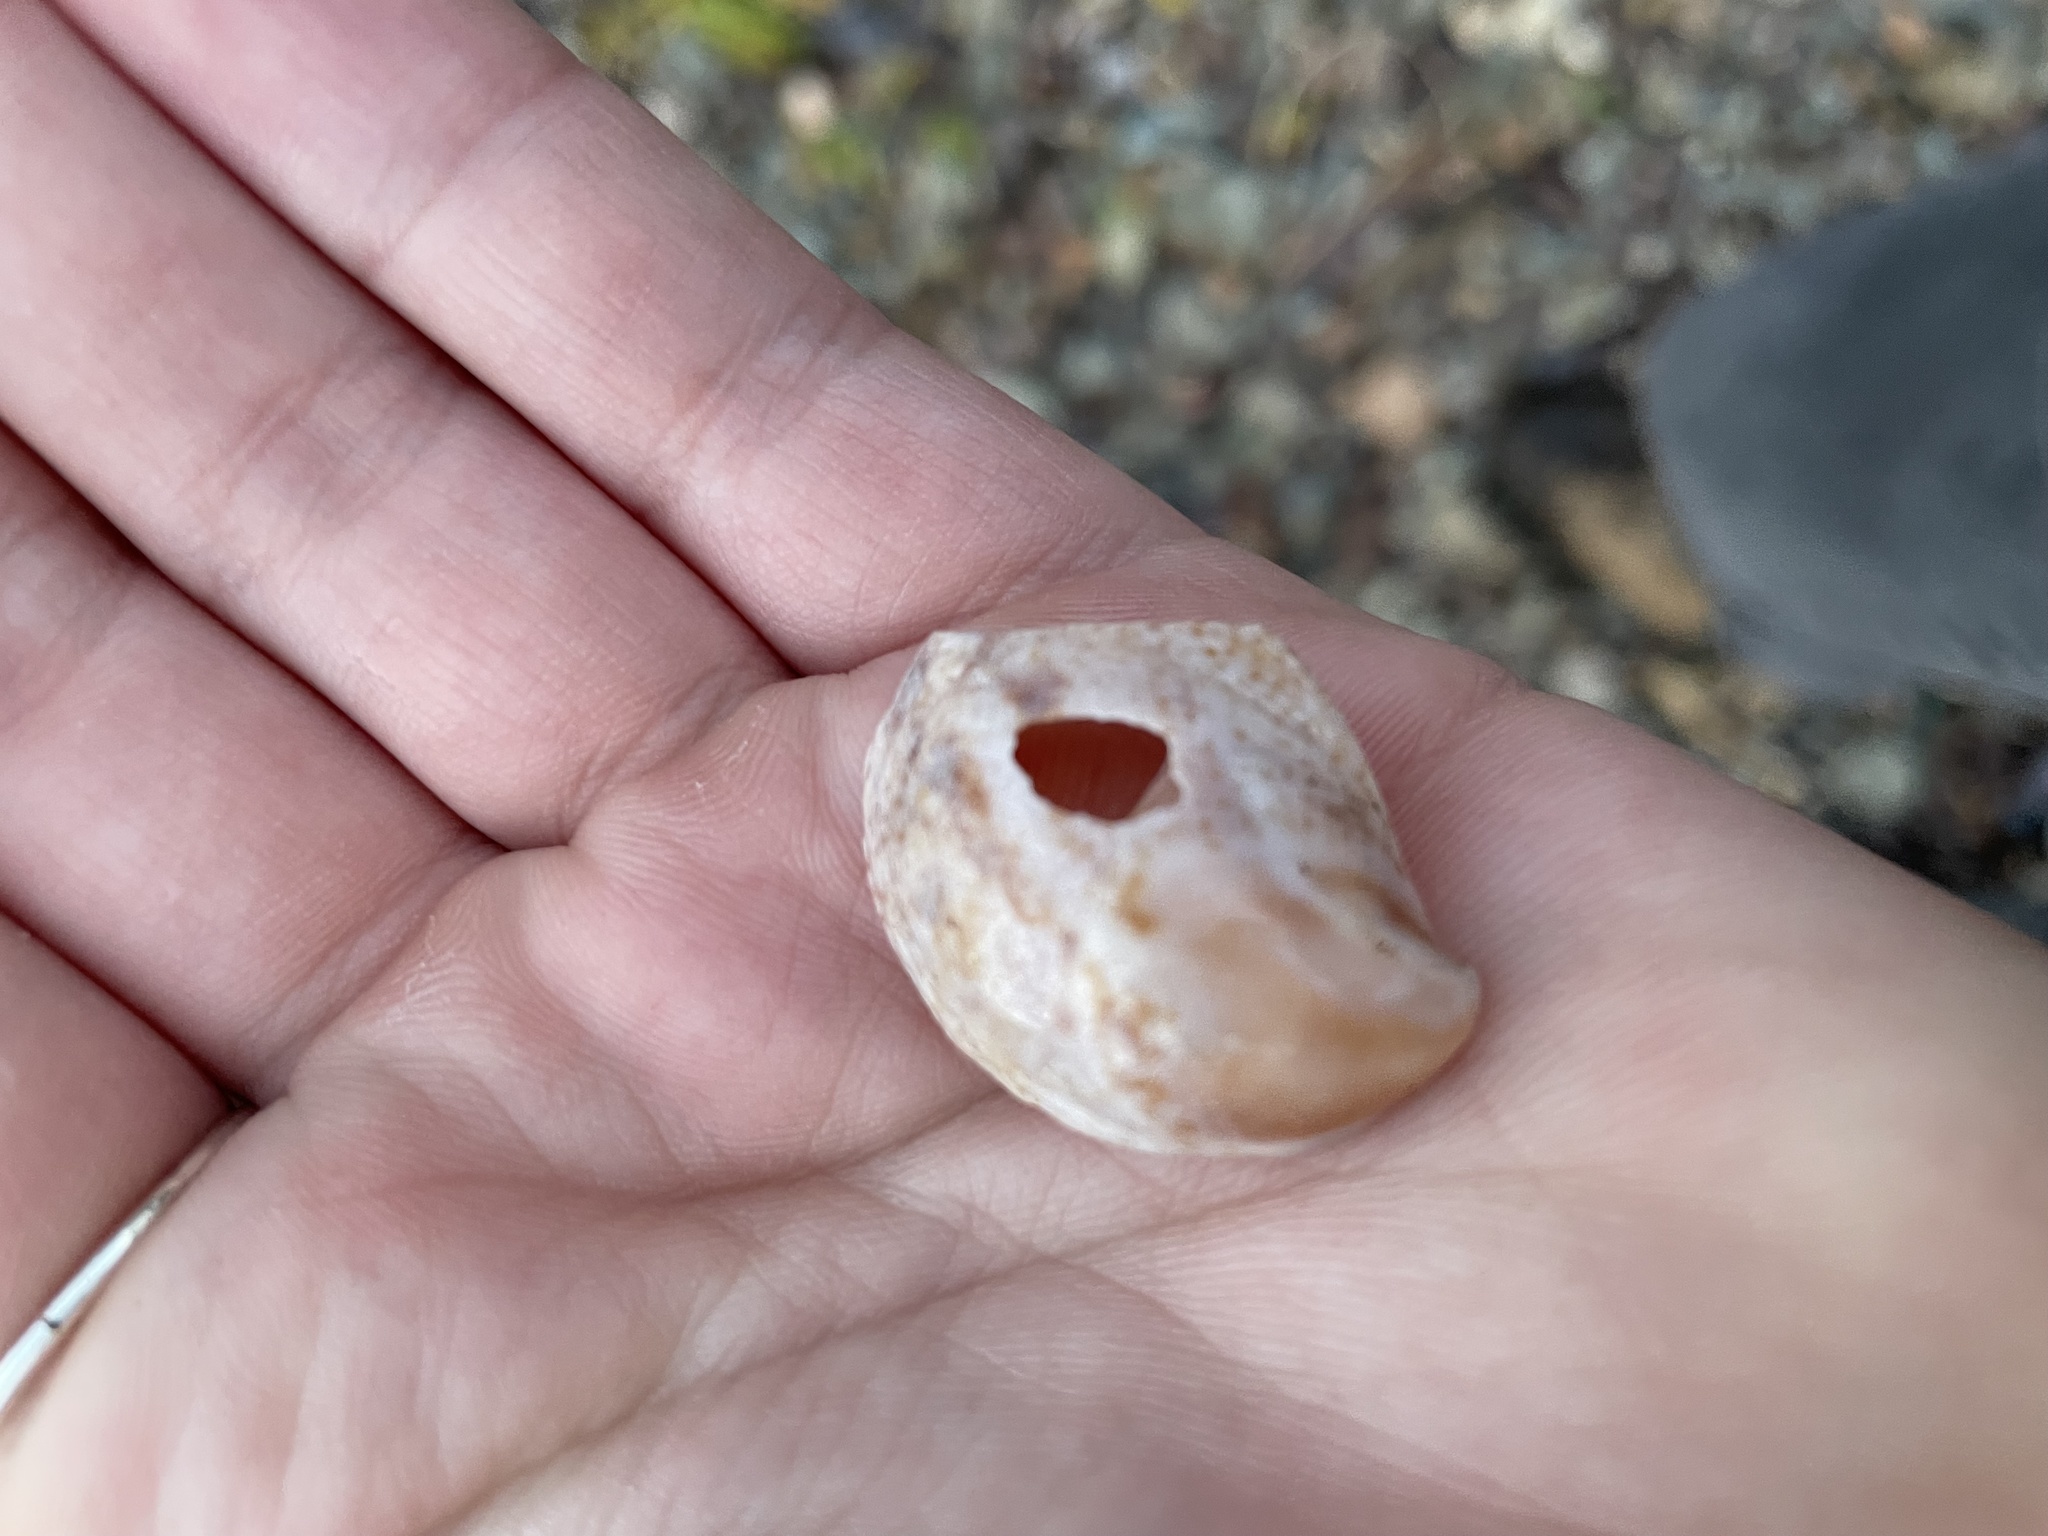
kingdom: Animalia
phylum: Mollusca
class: Gastropoda
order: Littorinimorpha
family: Calyptraeidae
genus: Crepidula
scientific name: Crepidula fornicata
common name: Slipper limpet
